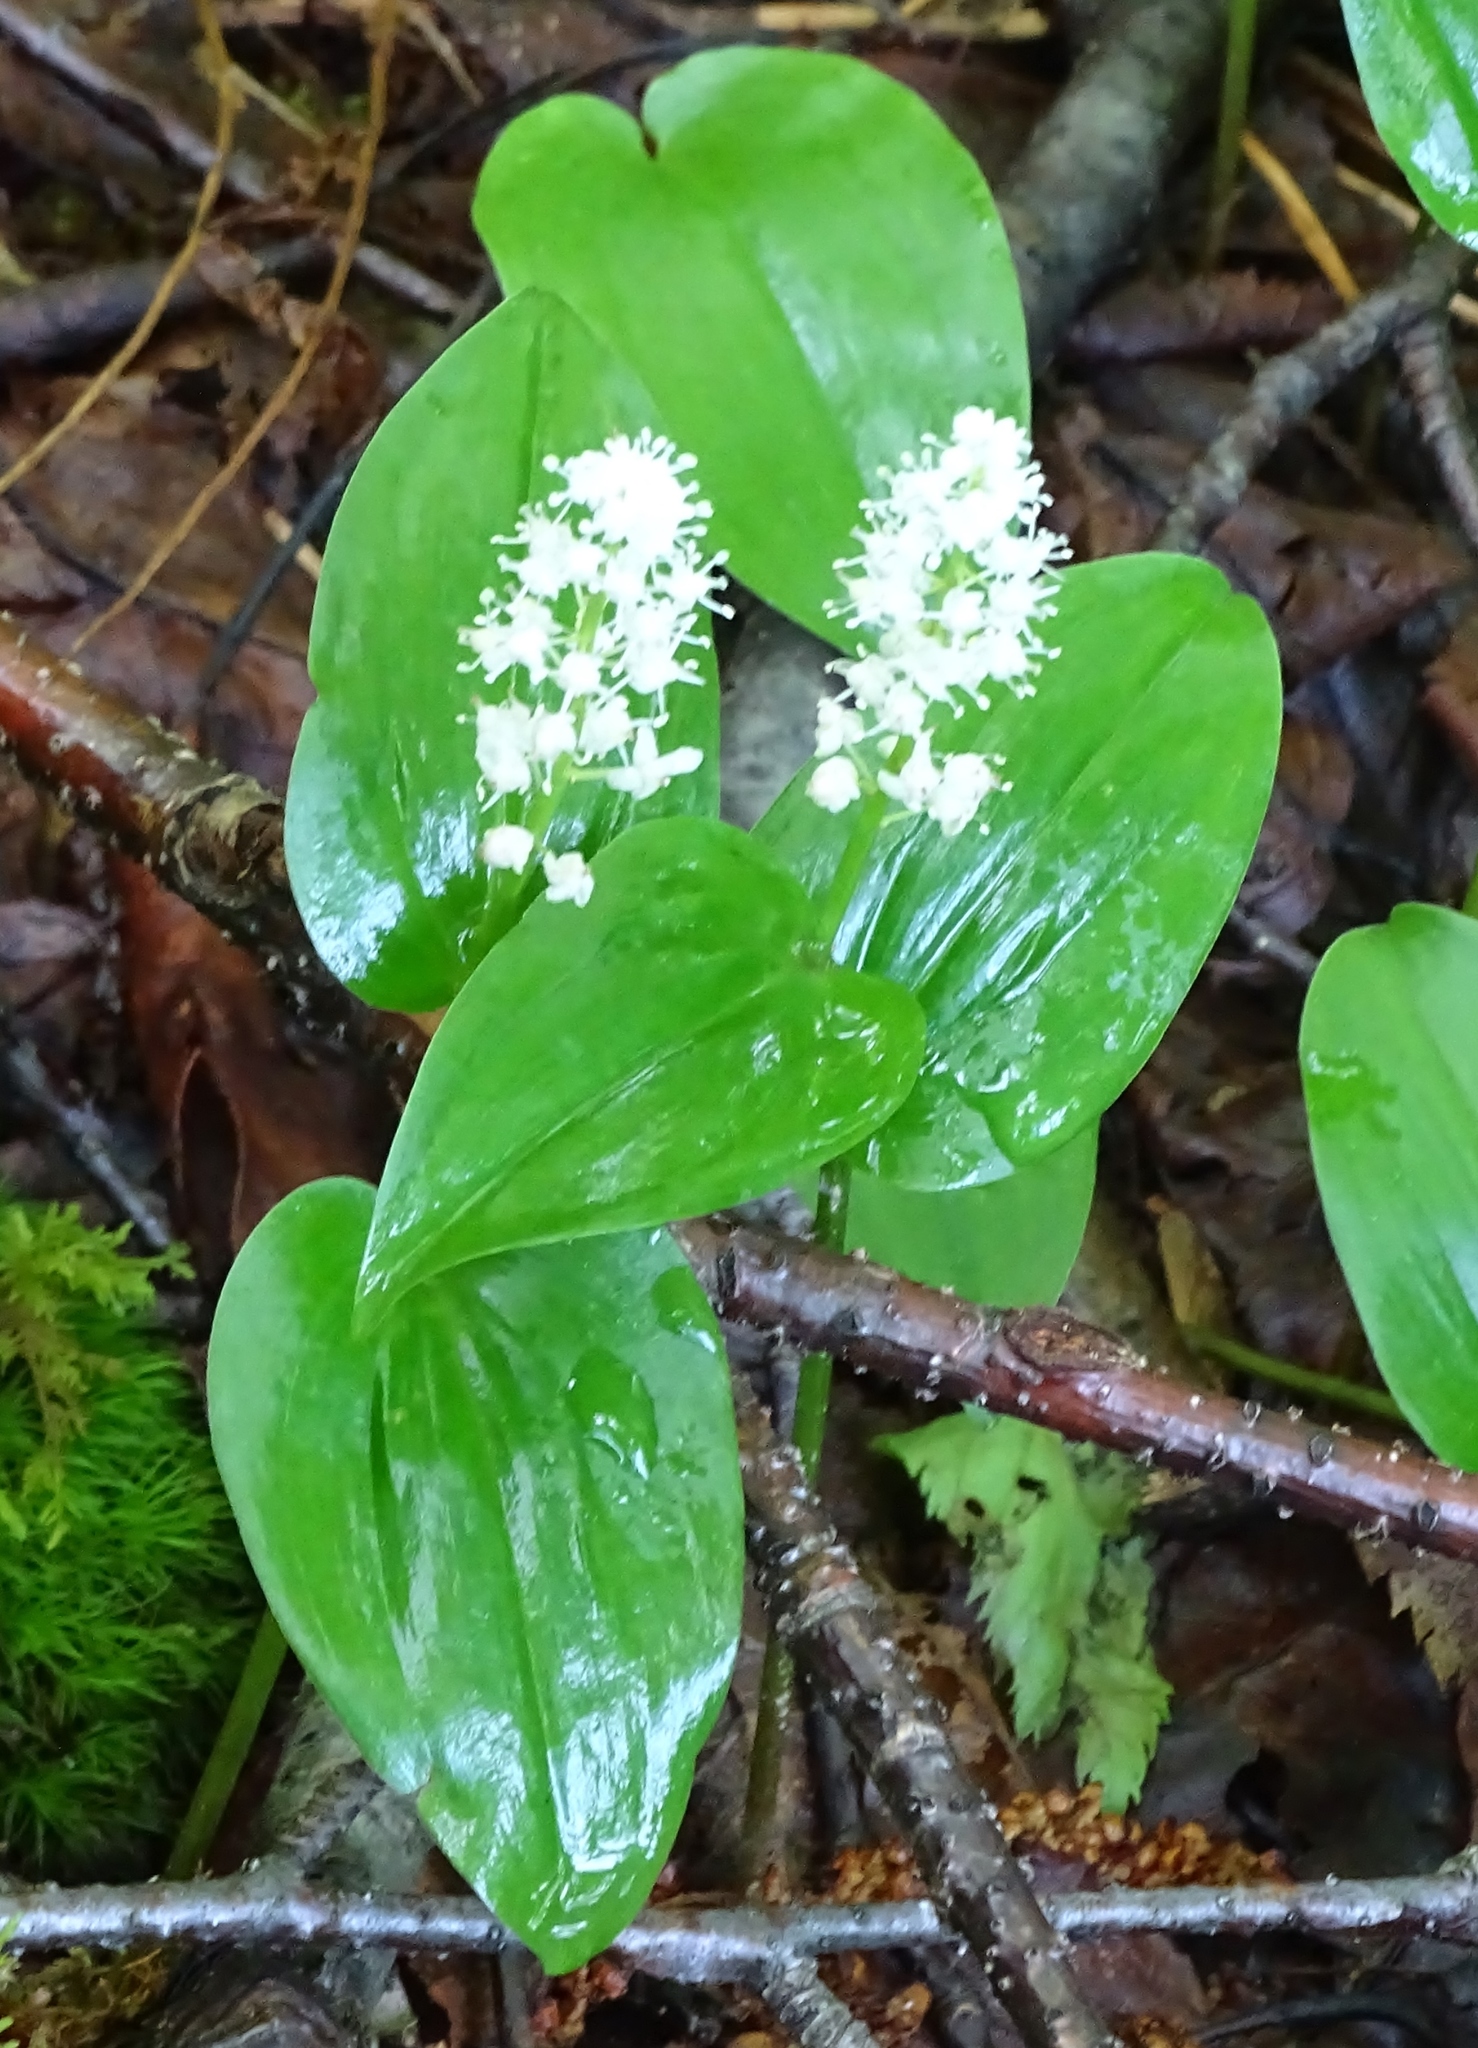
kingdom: Plantae
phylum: Tracheophyta
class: Liliopsida
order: Asparagales
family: Asparagaceae
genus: Maianthemum
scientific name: Maianthemum canadense
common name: False lily-of-the-valley
